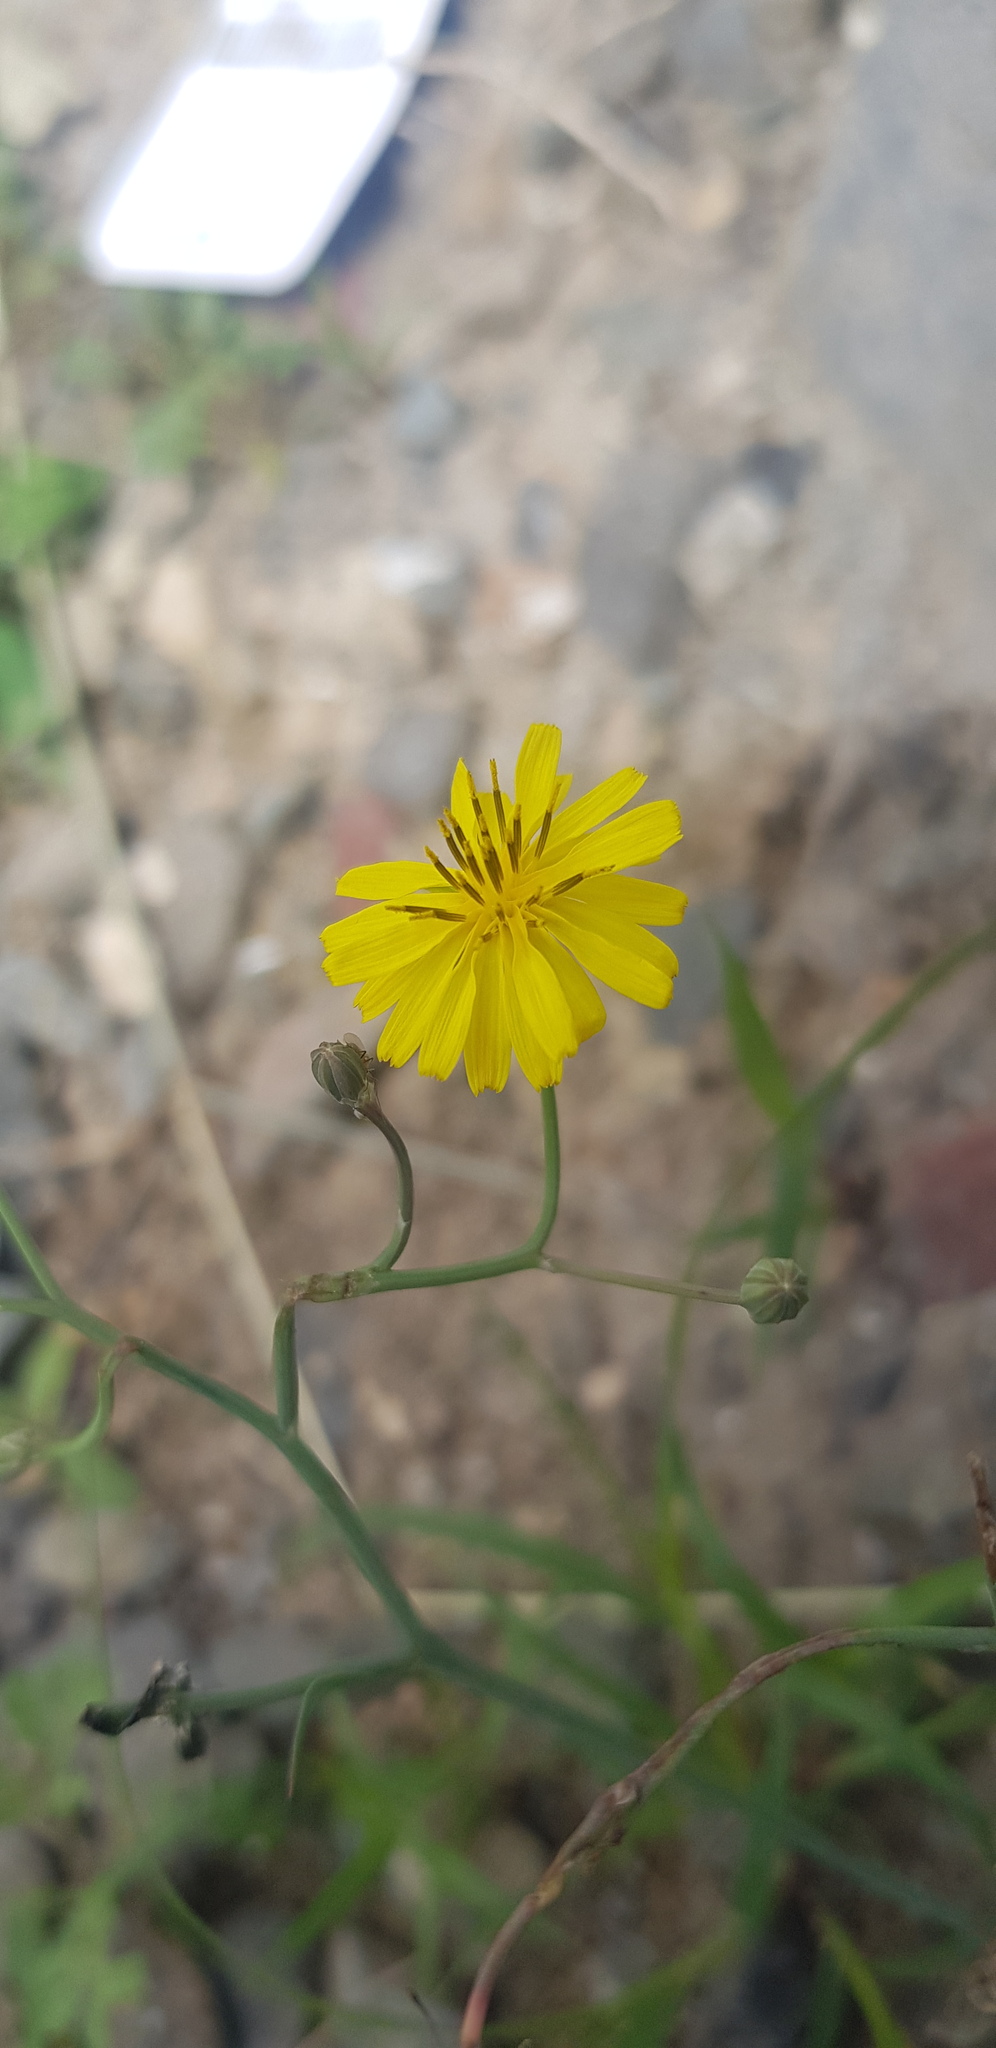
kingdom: Plantae
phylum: Tracheophyta
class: Magnoliopsida
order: Asterales
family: Asteraceae
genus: Crepidiastrum
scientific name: Crepidiastrum tenuifolium
